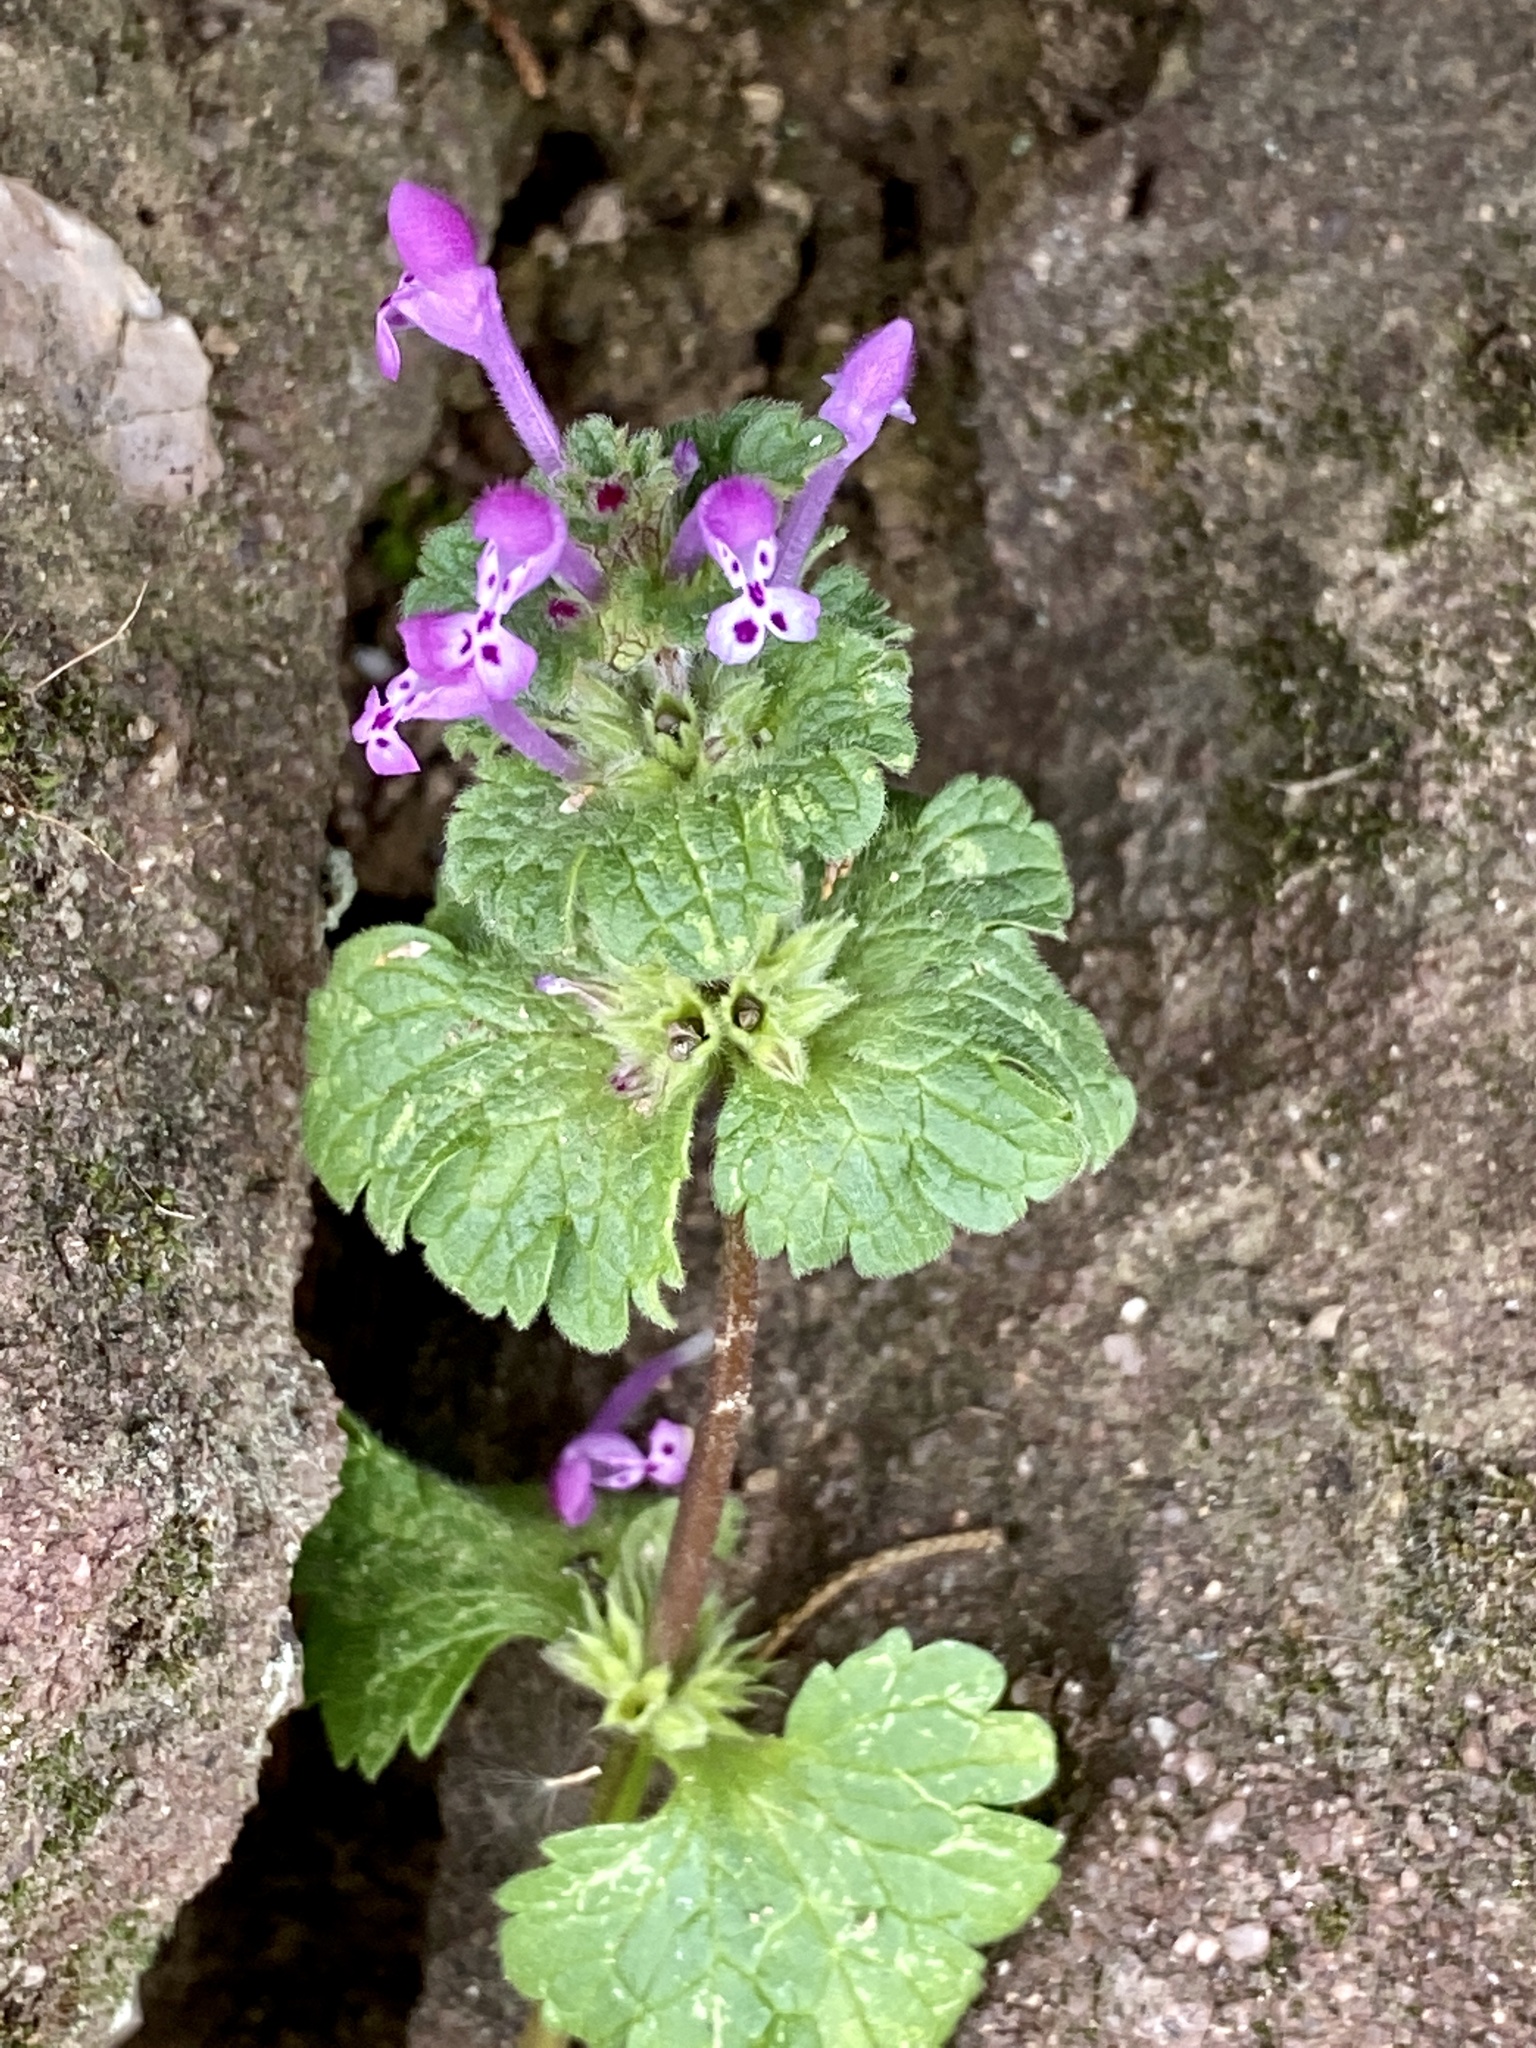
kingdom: Plantae
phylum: Tracheophyta
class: Magnoliopsida
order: Lamiales
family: Lamiaceae
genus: Lamium
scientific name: Lamium amplexicaule
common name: Henbit dead-nettle
